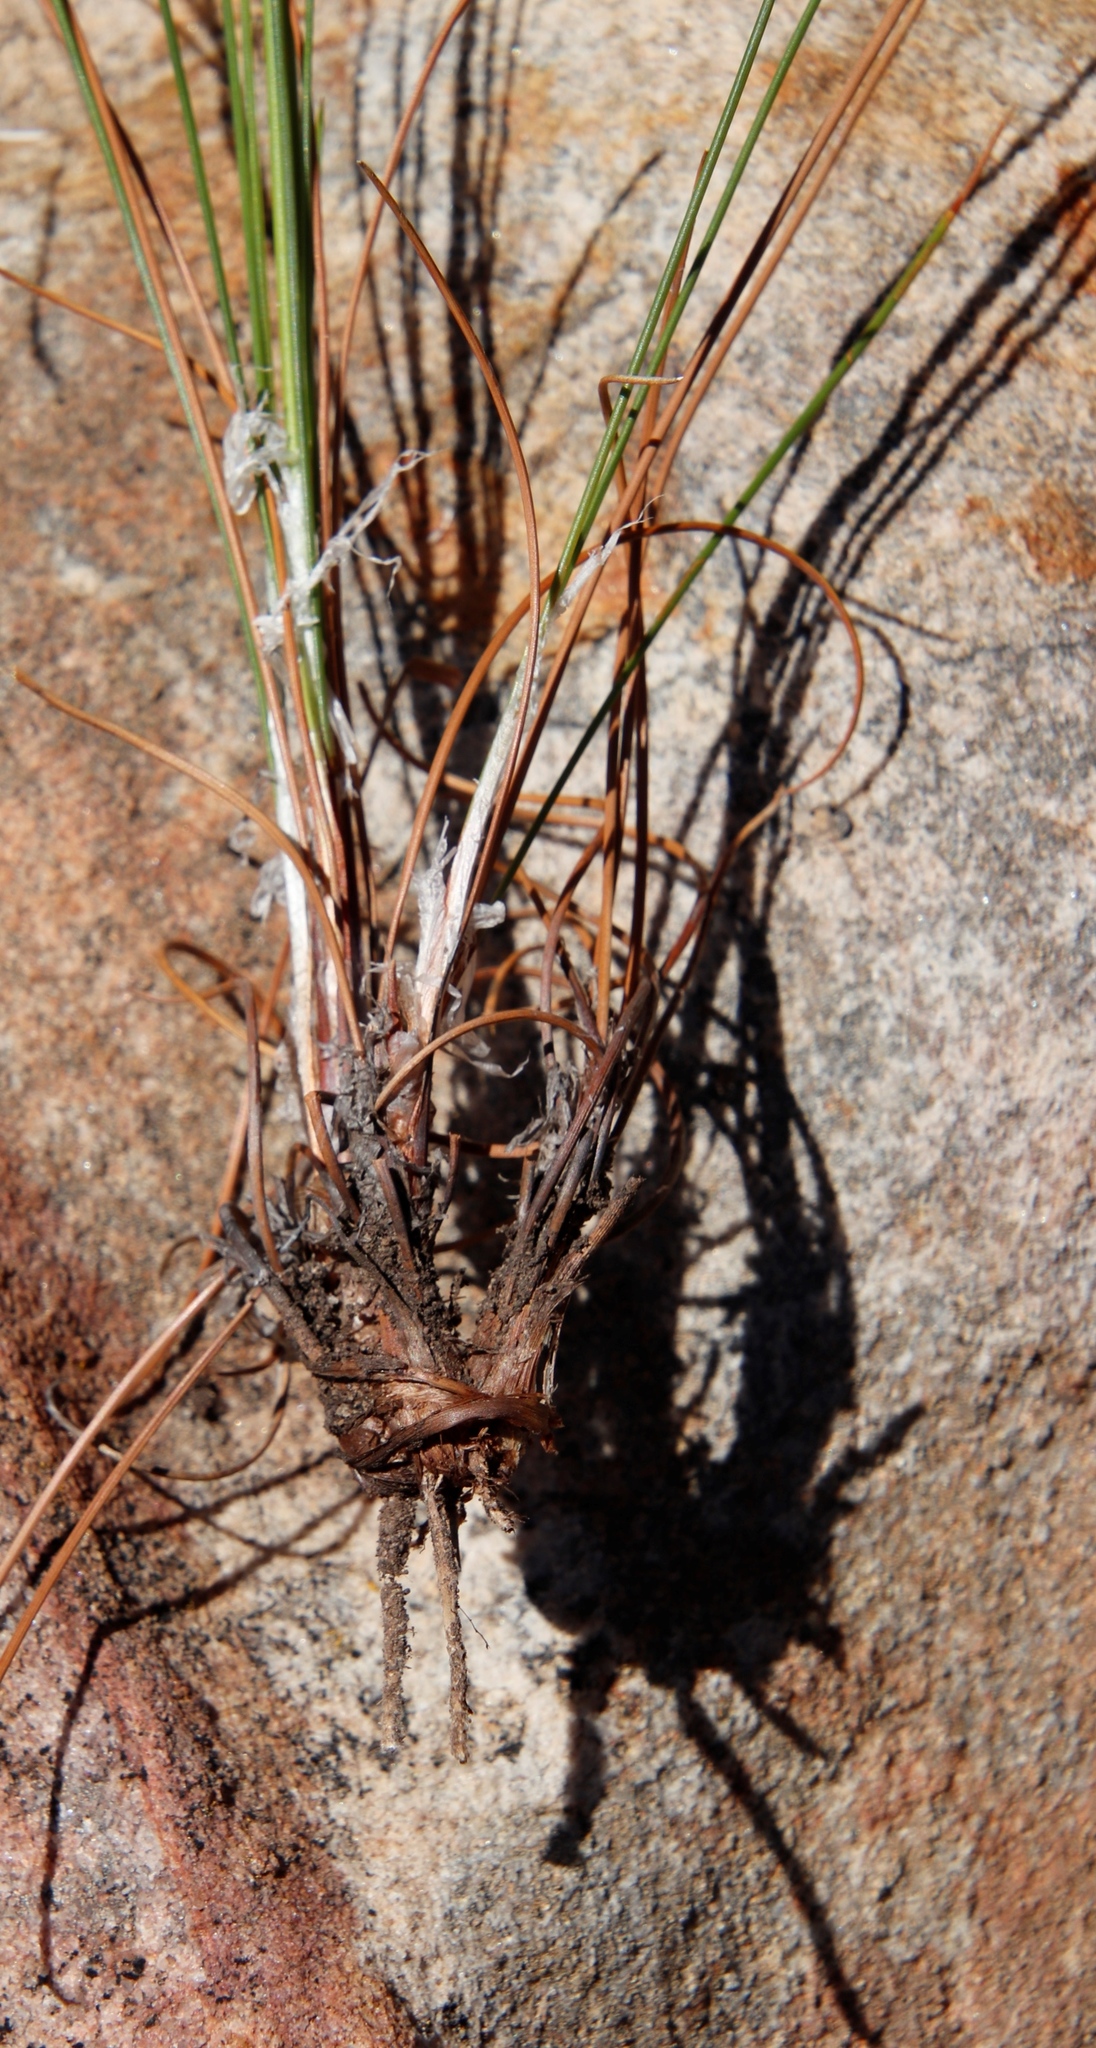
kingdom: Plantae
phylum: Tracheophyta
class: Liliopsida
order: Poales
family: Cyperaceae
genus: Ficinia
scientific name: Ficinia deusta
